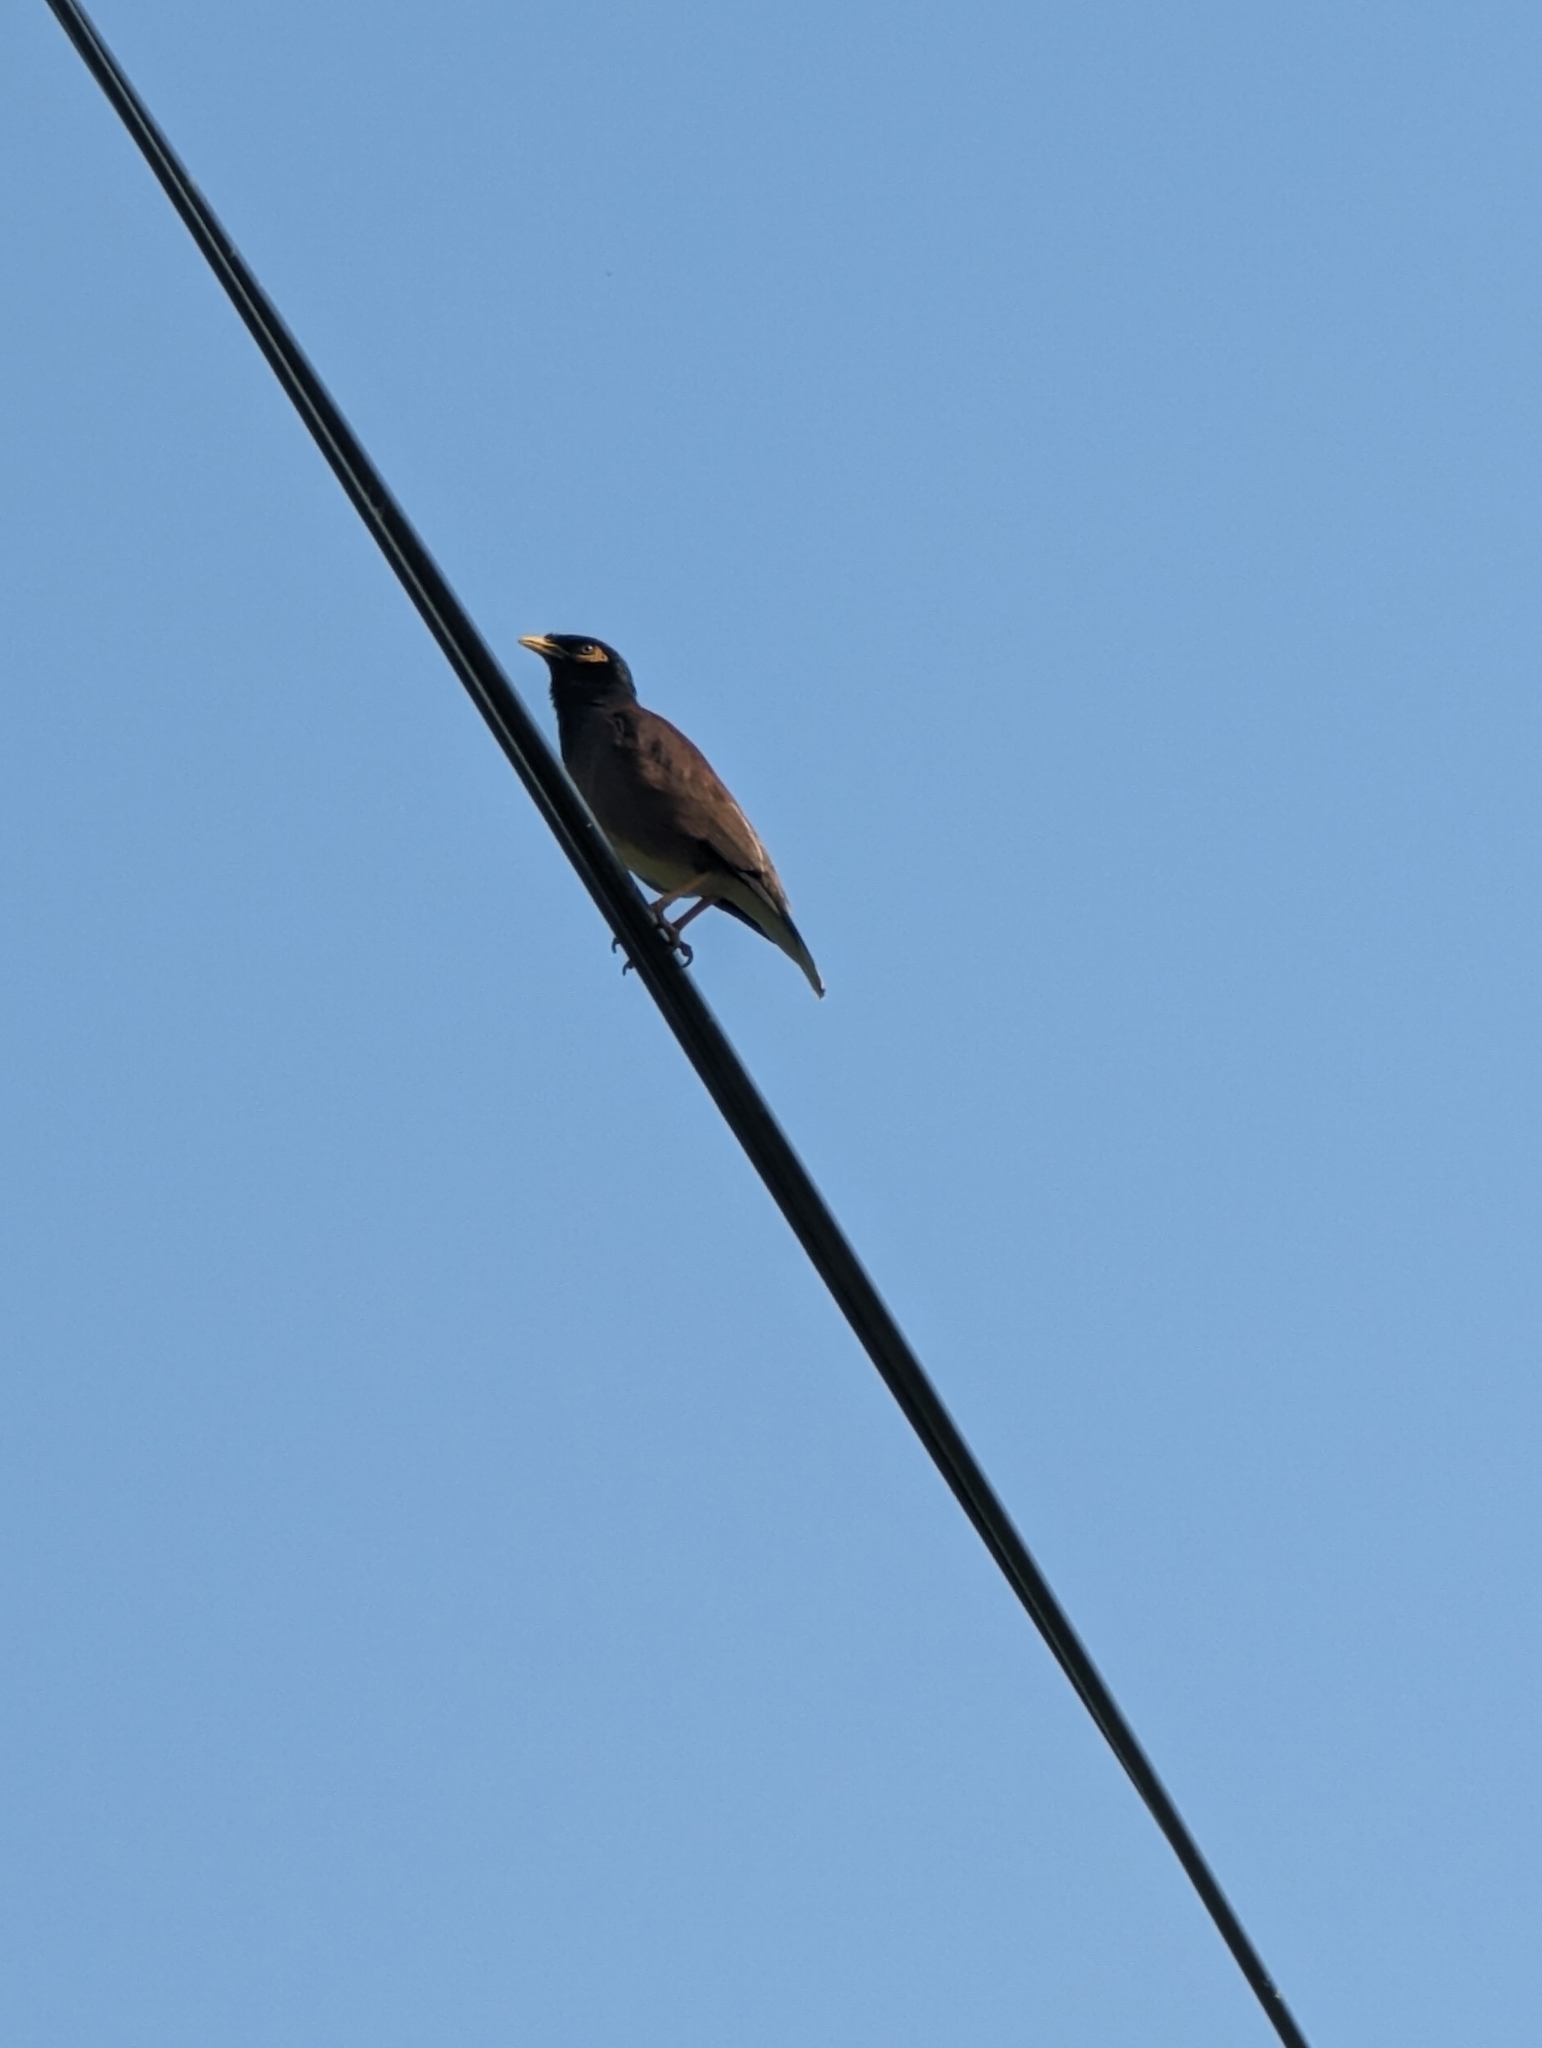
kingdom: Animalia
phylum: Chordata
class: Aves
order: Passeriformes
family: Sturnidae
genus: Acridotheres
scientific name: Acridotheres tristis
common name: Common myna
